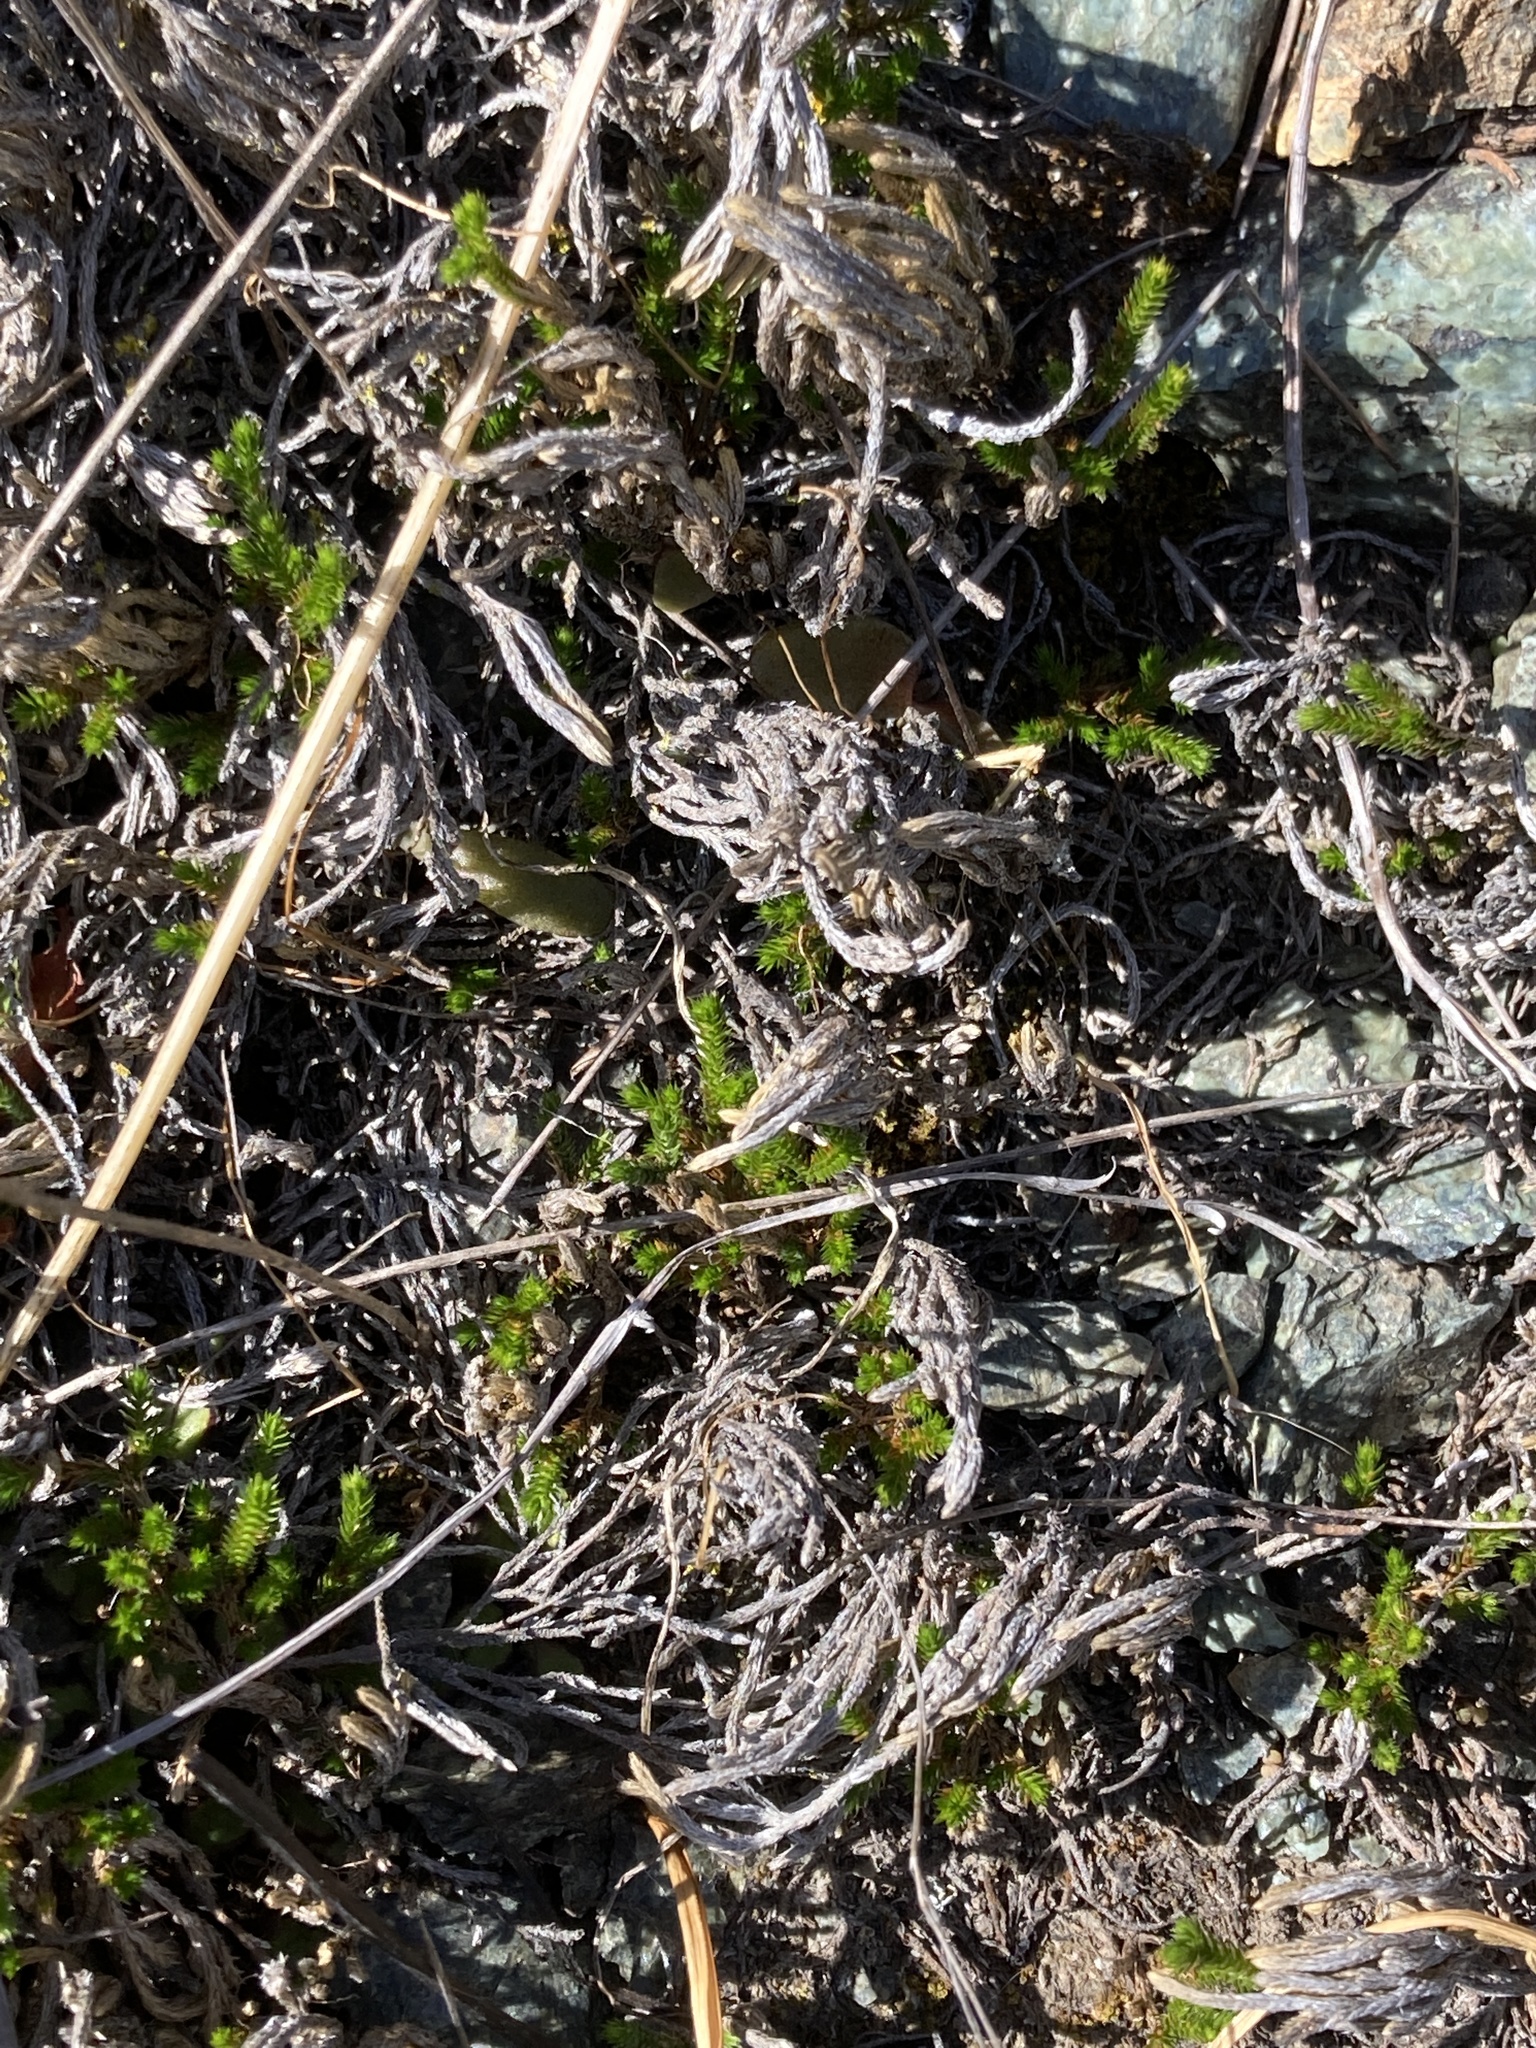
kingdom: Plantae
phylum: Tracheophyta
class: Lycopodiopsida
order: Selaginellales
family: Selaginellaceae
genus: Selaginella
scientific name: Selaginella bigelovii
